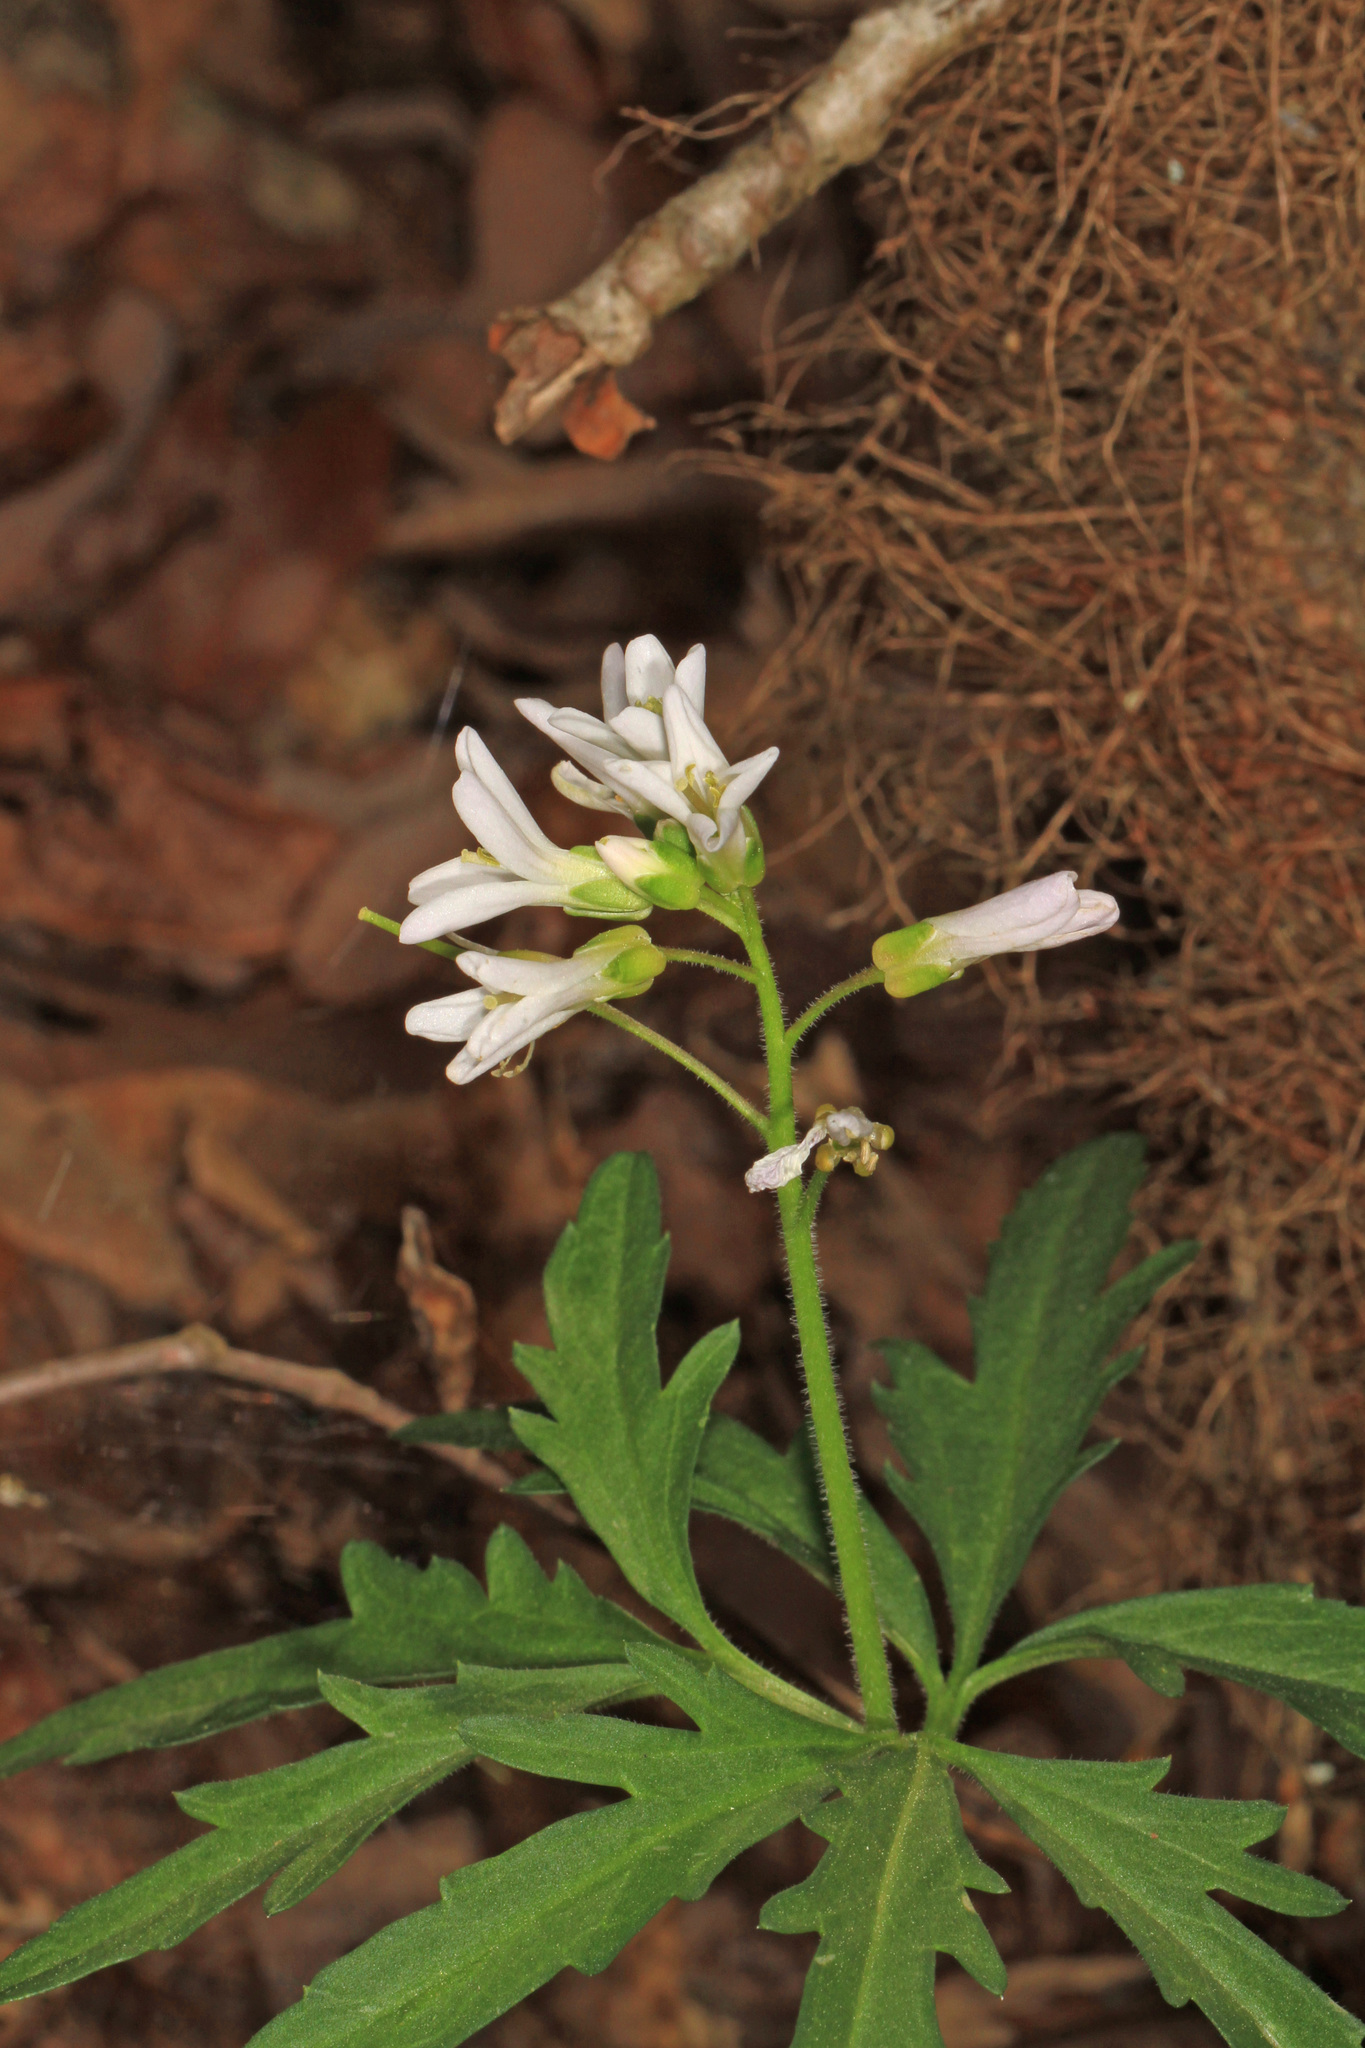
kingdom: Plantae
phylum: Tracheophyta
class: Magnoliopsida
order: Brassicales
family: Brassicaceae
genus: Cardamine
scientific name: Cardamine concatenata
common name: Cut-leaf toothcup
